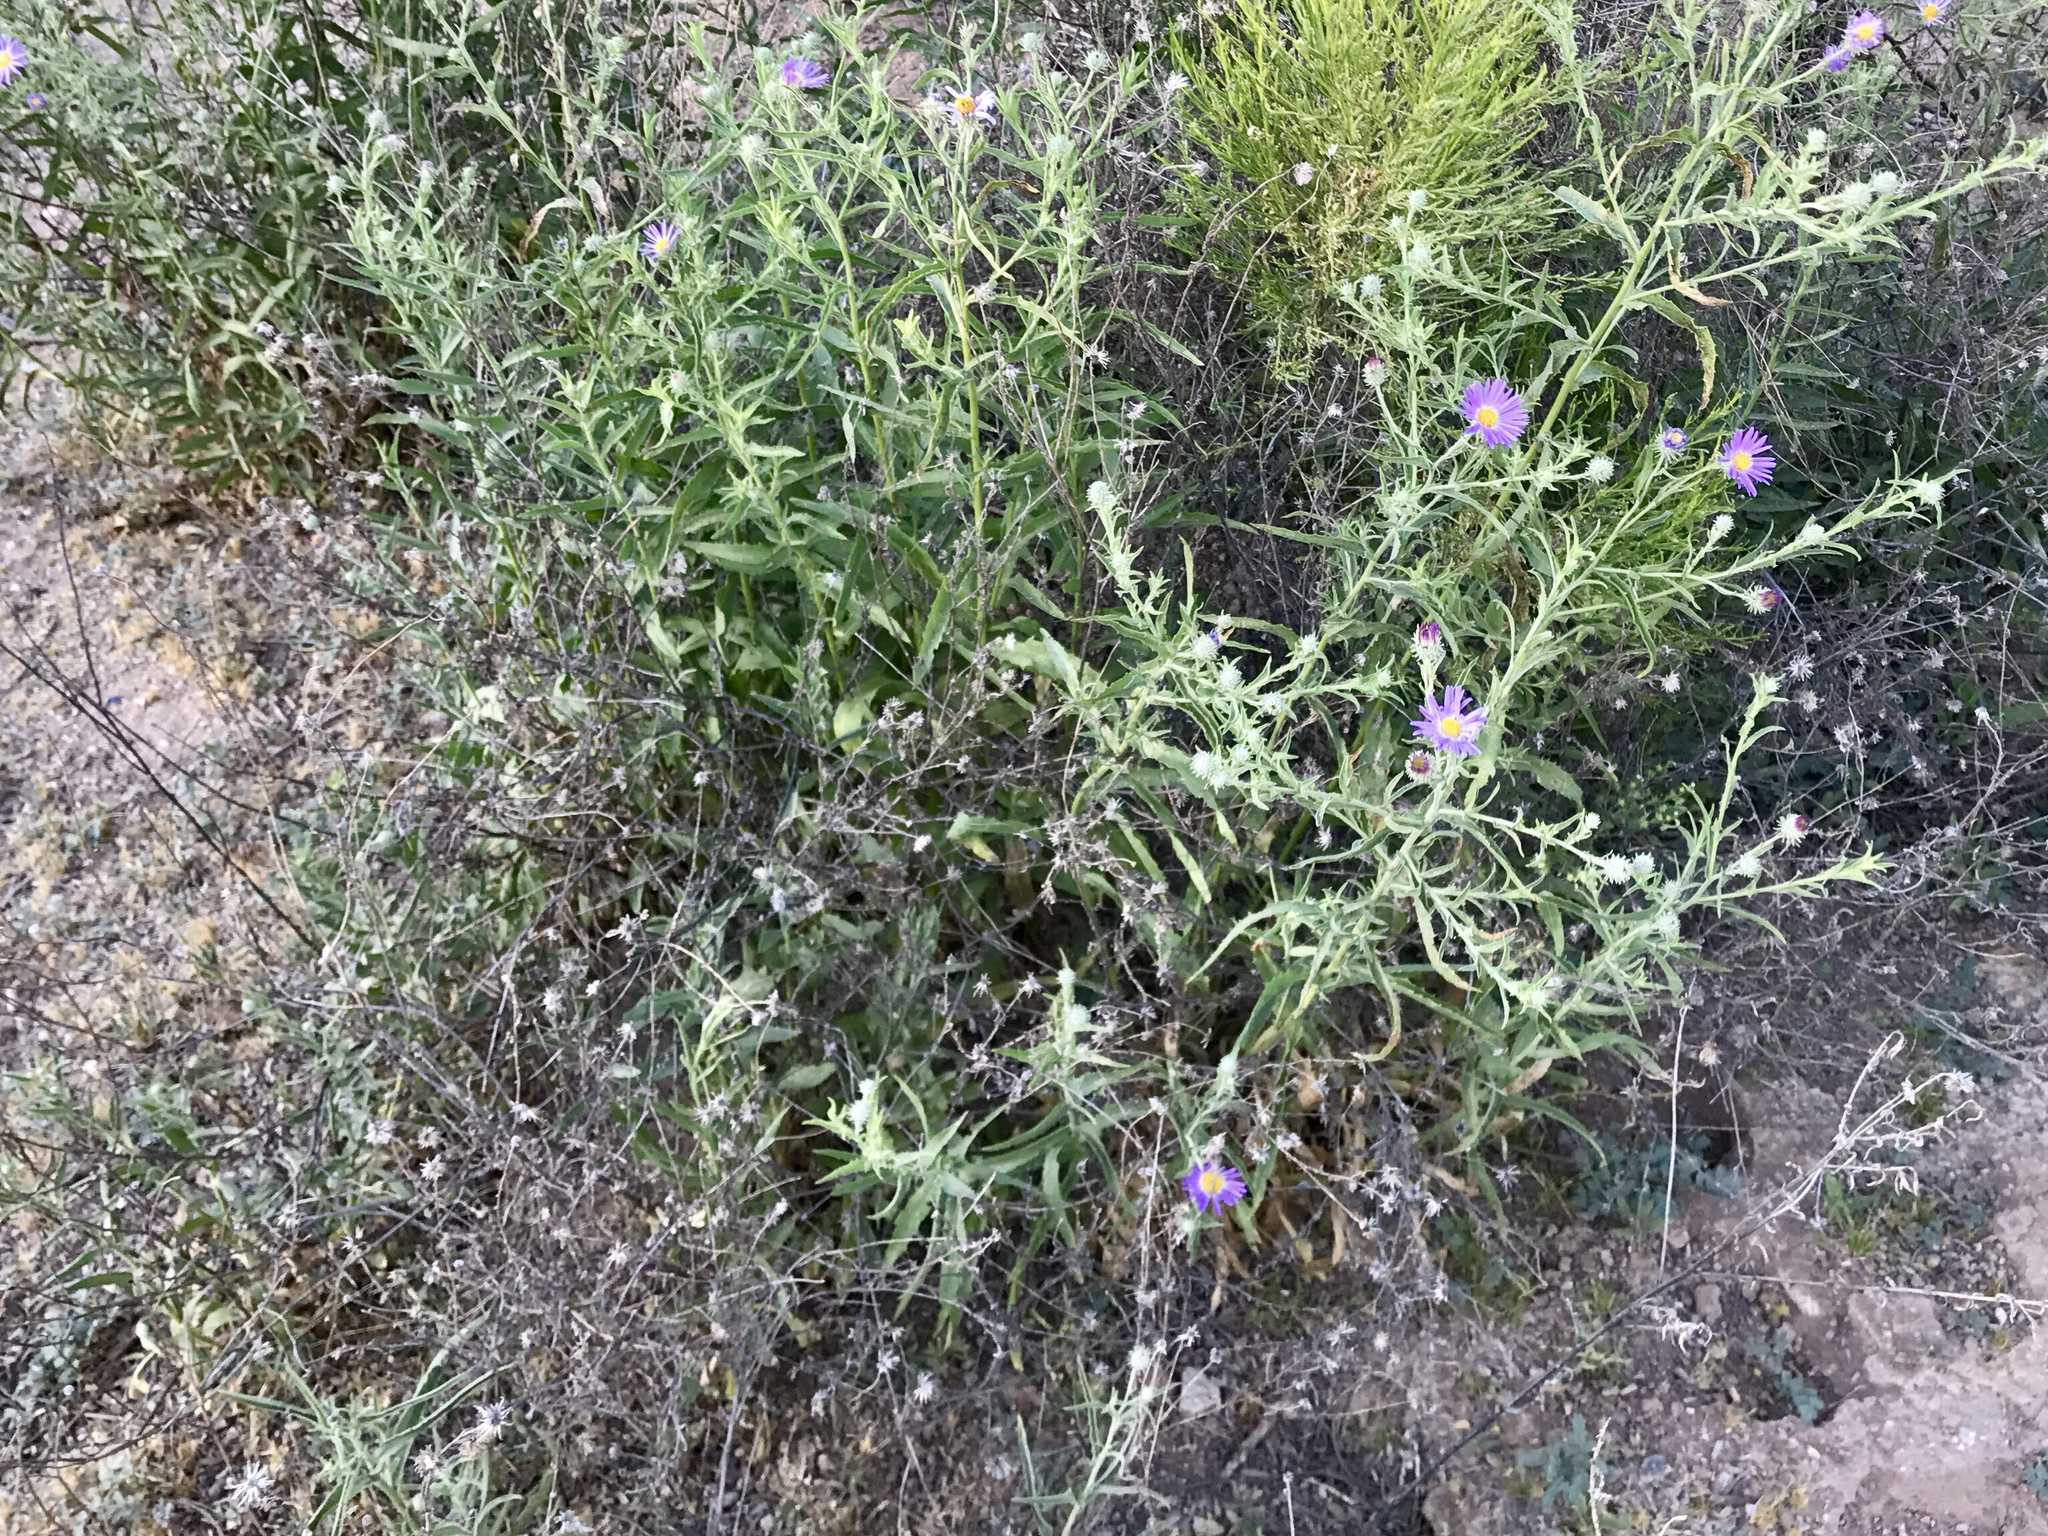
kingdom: Plantae
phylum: Tracheophyta
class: Magnoliopsida
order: Asterales
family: Asteraceae
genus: Machaeranthera
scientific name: Machaeranthera tanacetifolia
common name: Tansy-aster
